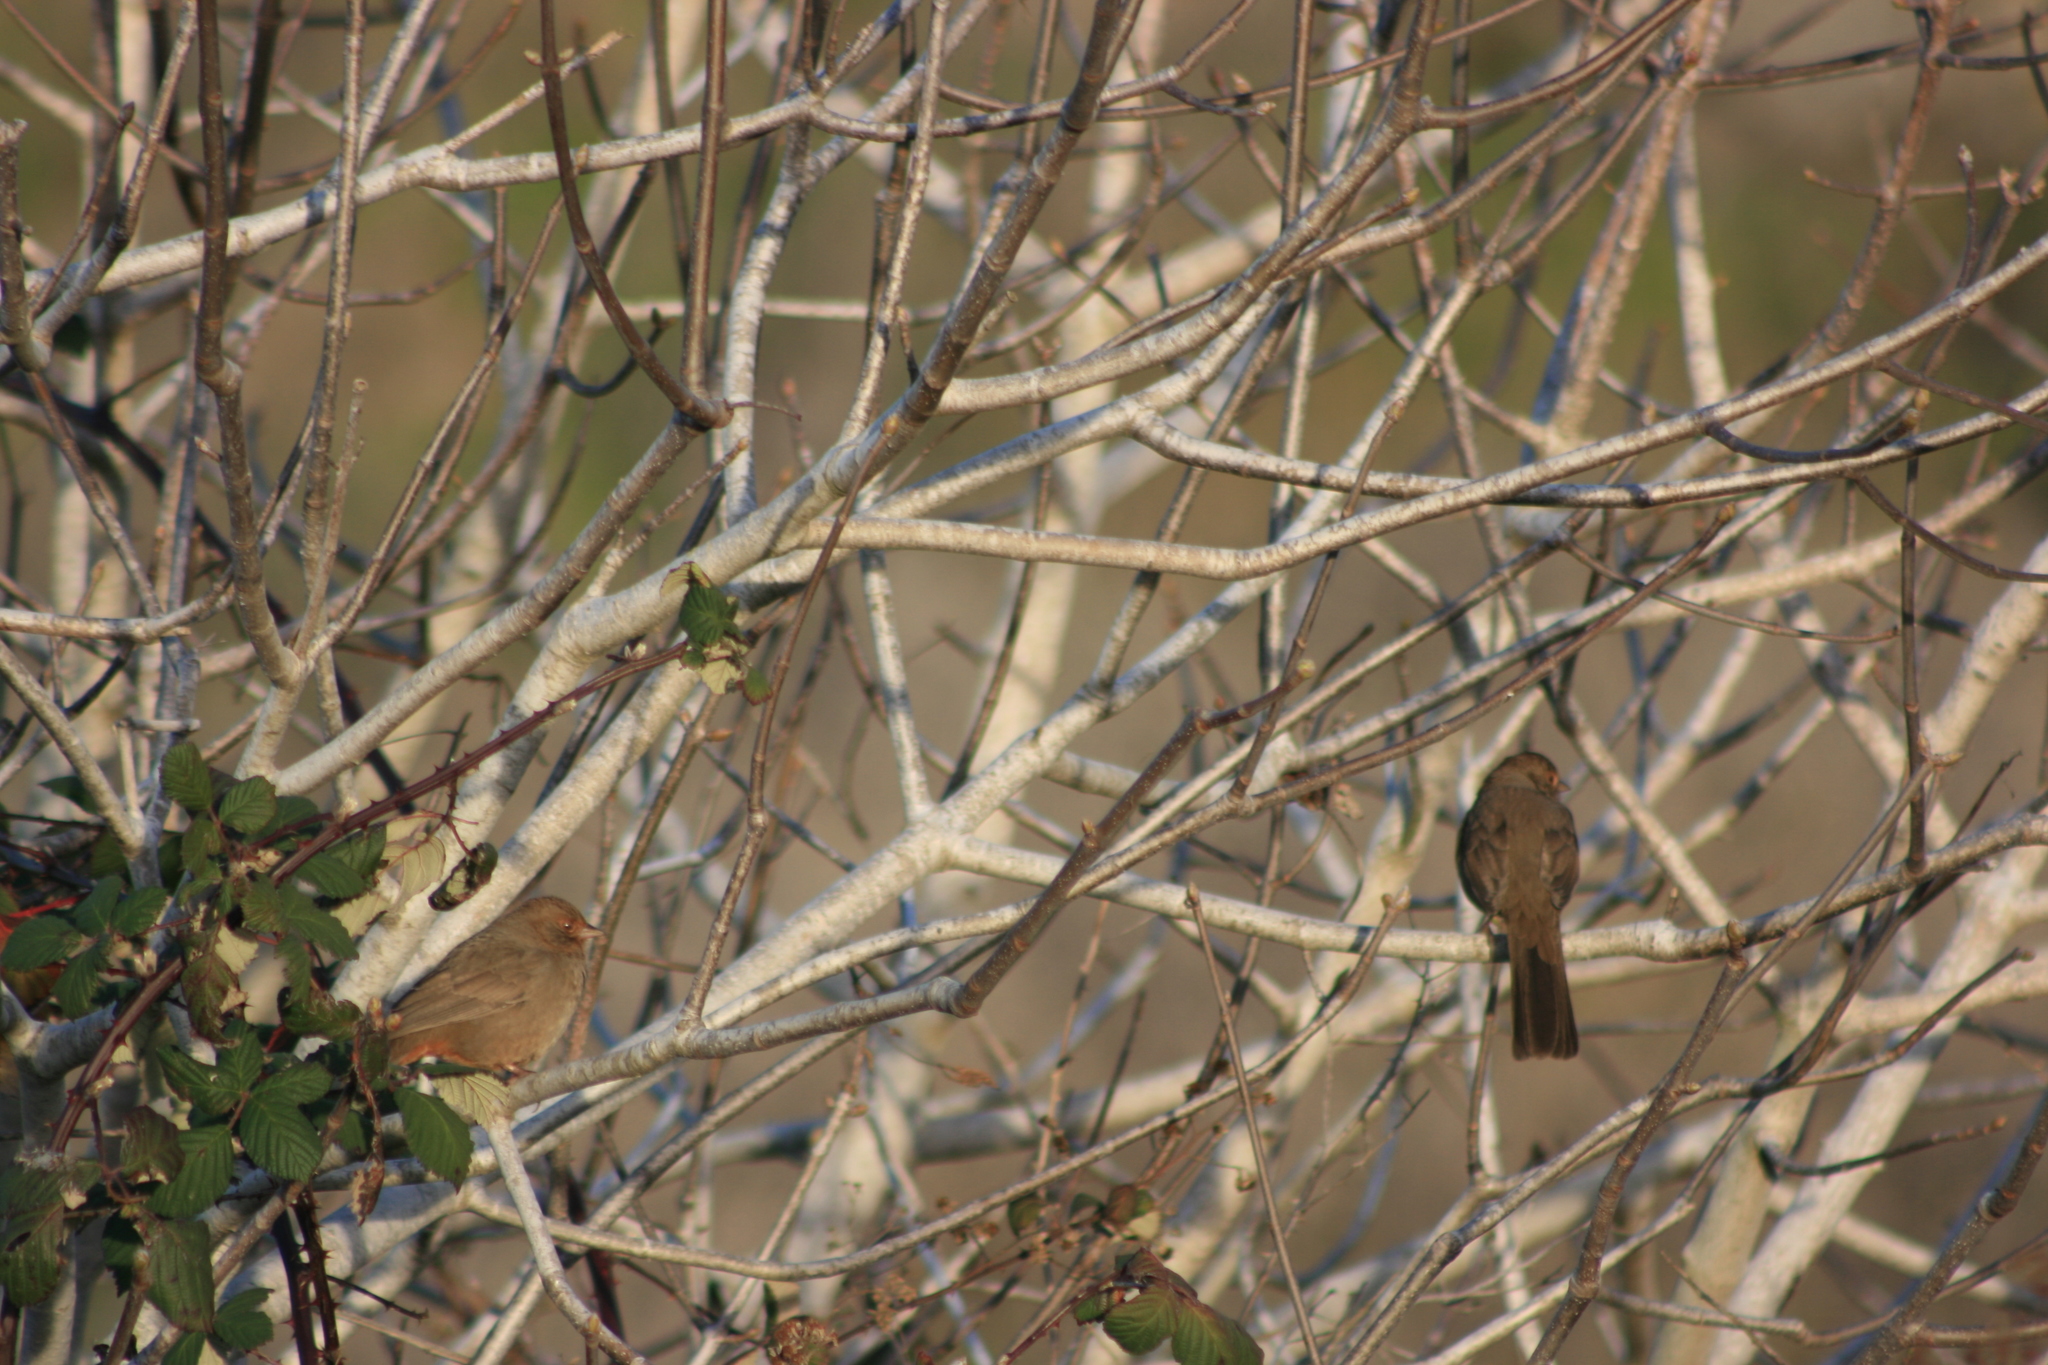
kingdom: Animalia
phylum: Chordata
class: Aves
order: Passeriformes
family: Passerellidae
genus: Melozone
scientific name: Melozone crissalis
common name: California towhee
